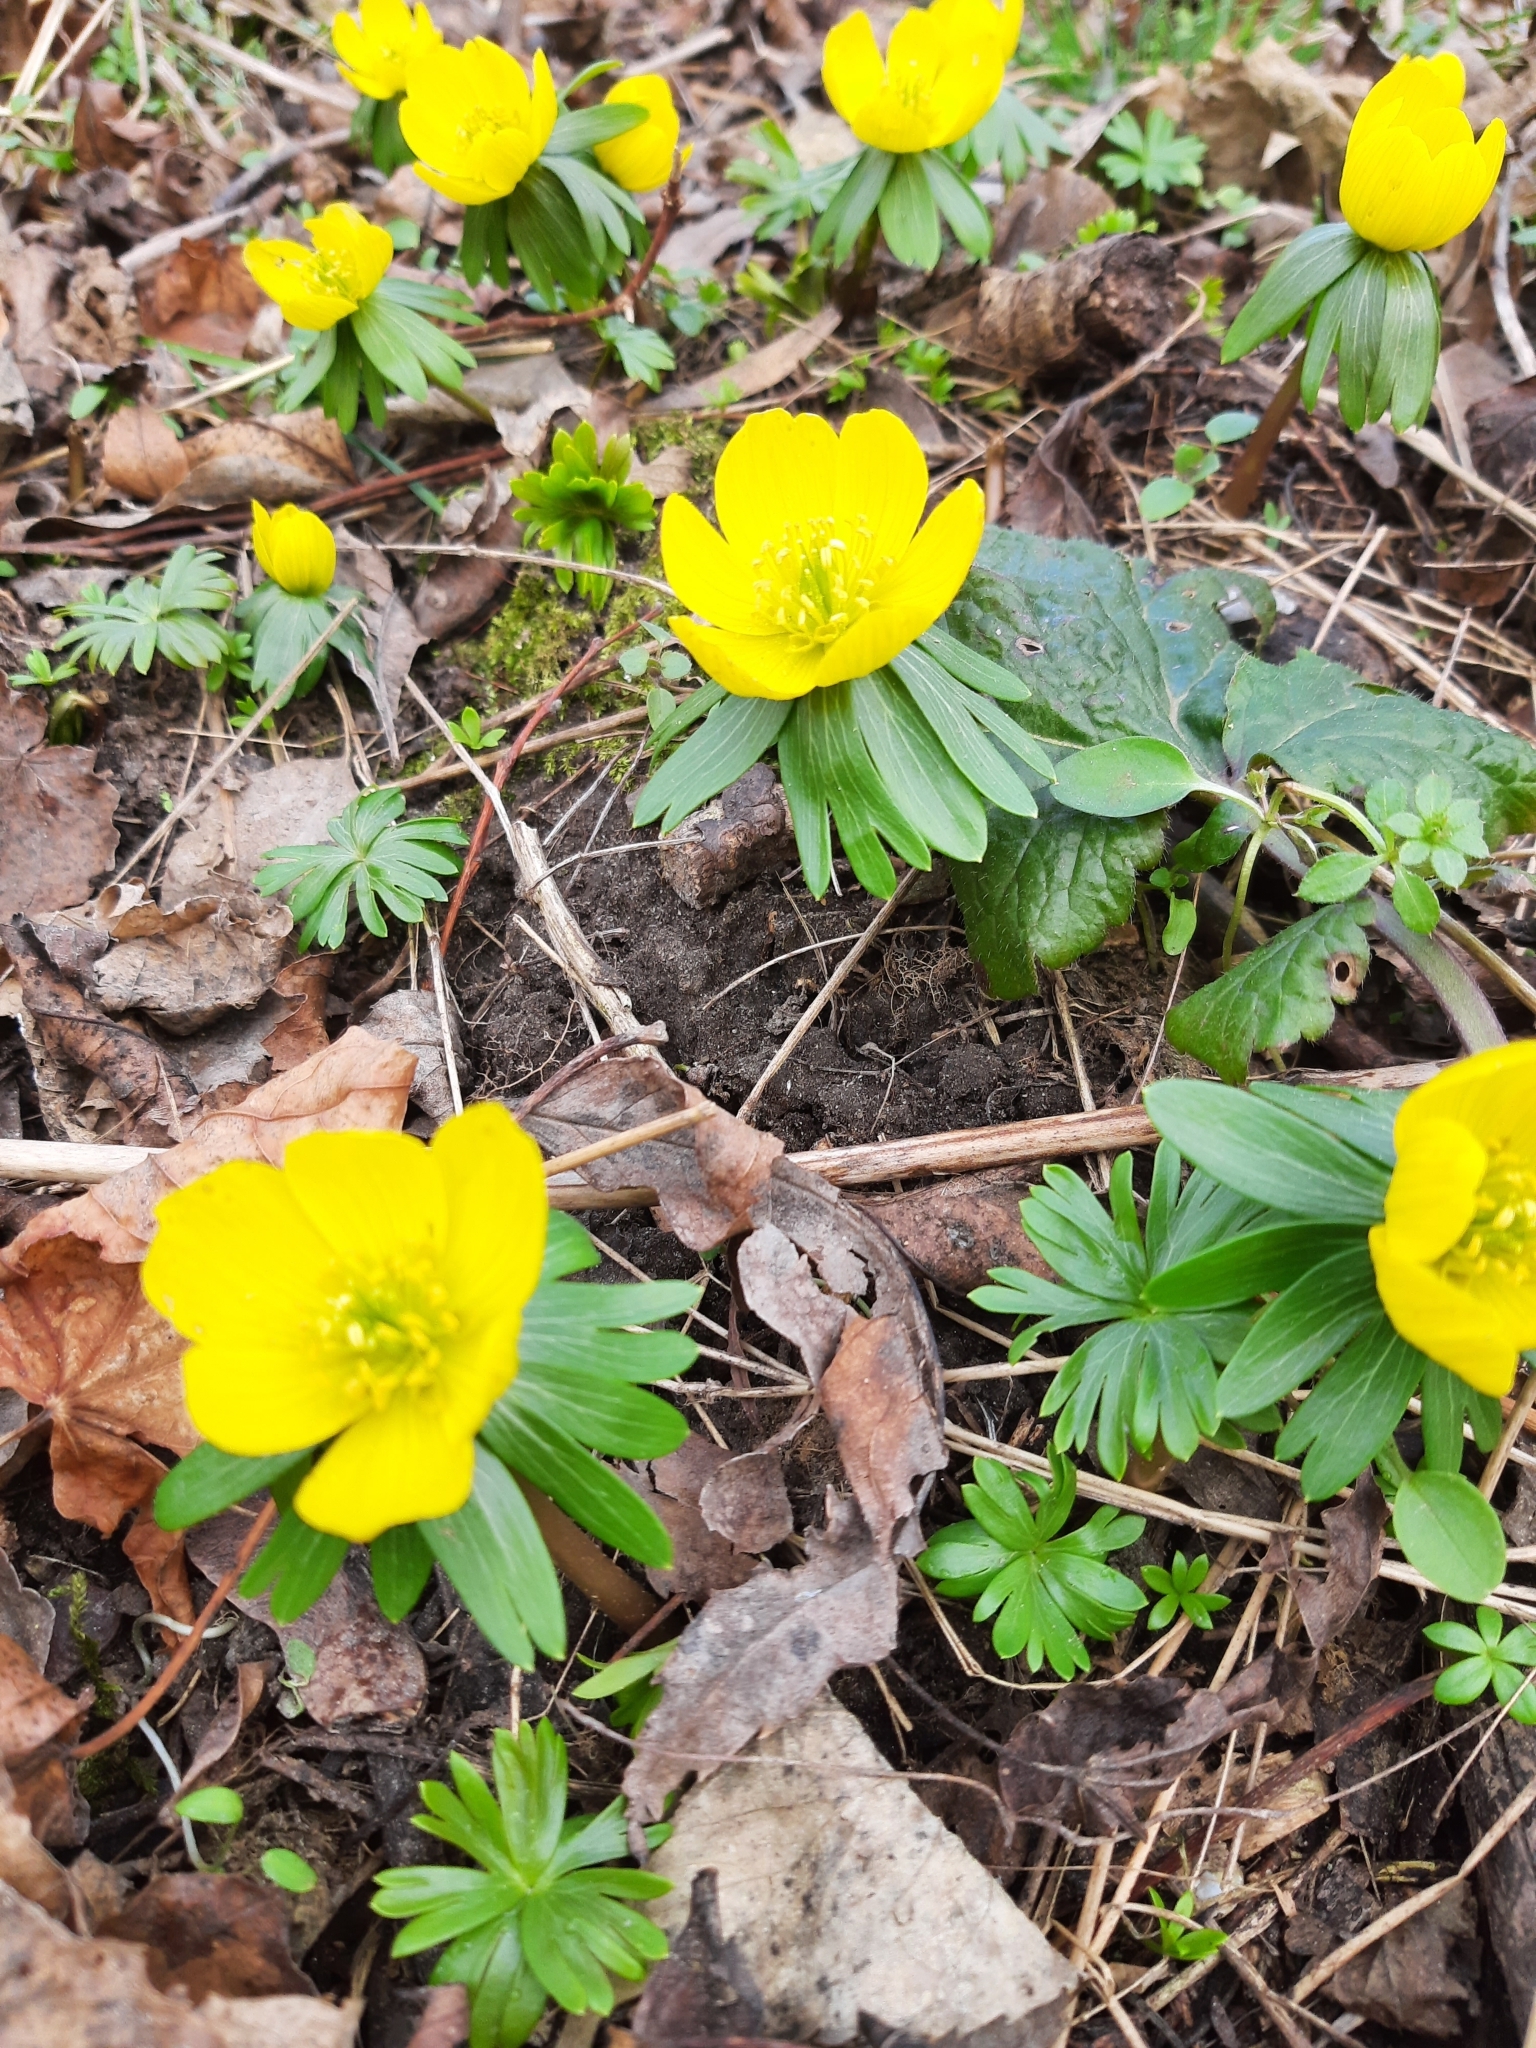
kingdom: Plantae
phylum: Tracheophyta
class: Magnoliopsida
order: Ranunculales
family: Ranunculaceae
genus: Eranthis
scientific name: Eranthis hyemalis
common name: Winter aconite
